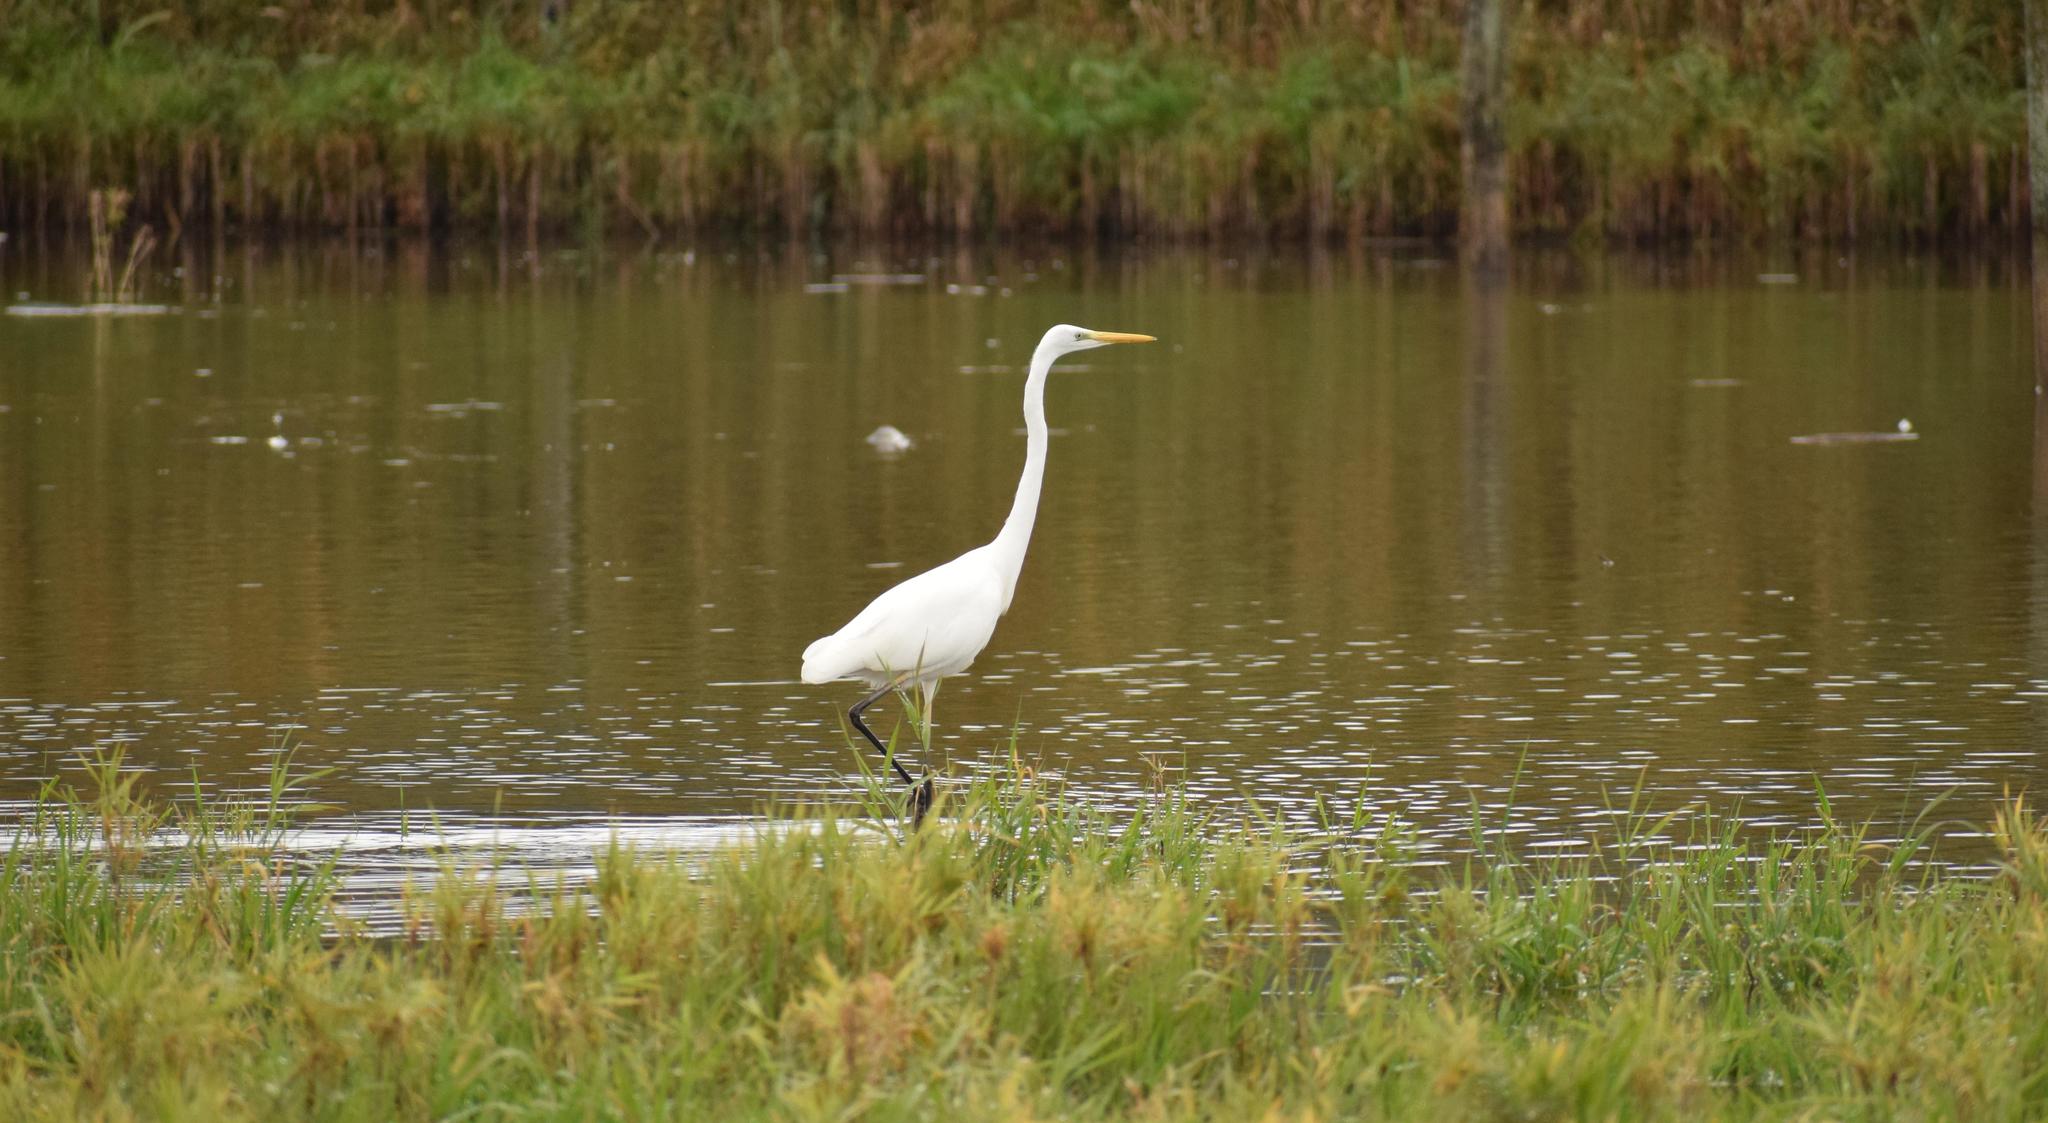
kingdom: Animalia
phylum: Chordata
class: Aves
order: Pelecaniformes
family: Ardeidae
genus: Ardea
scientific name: Ardea alba
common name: Great egret
